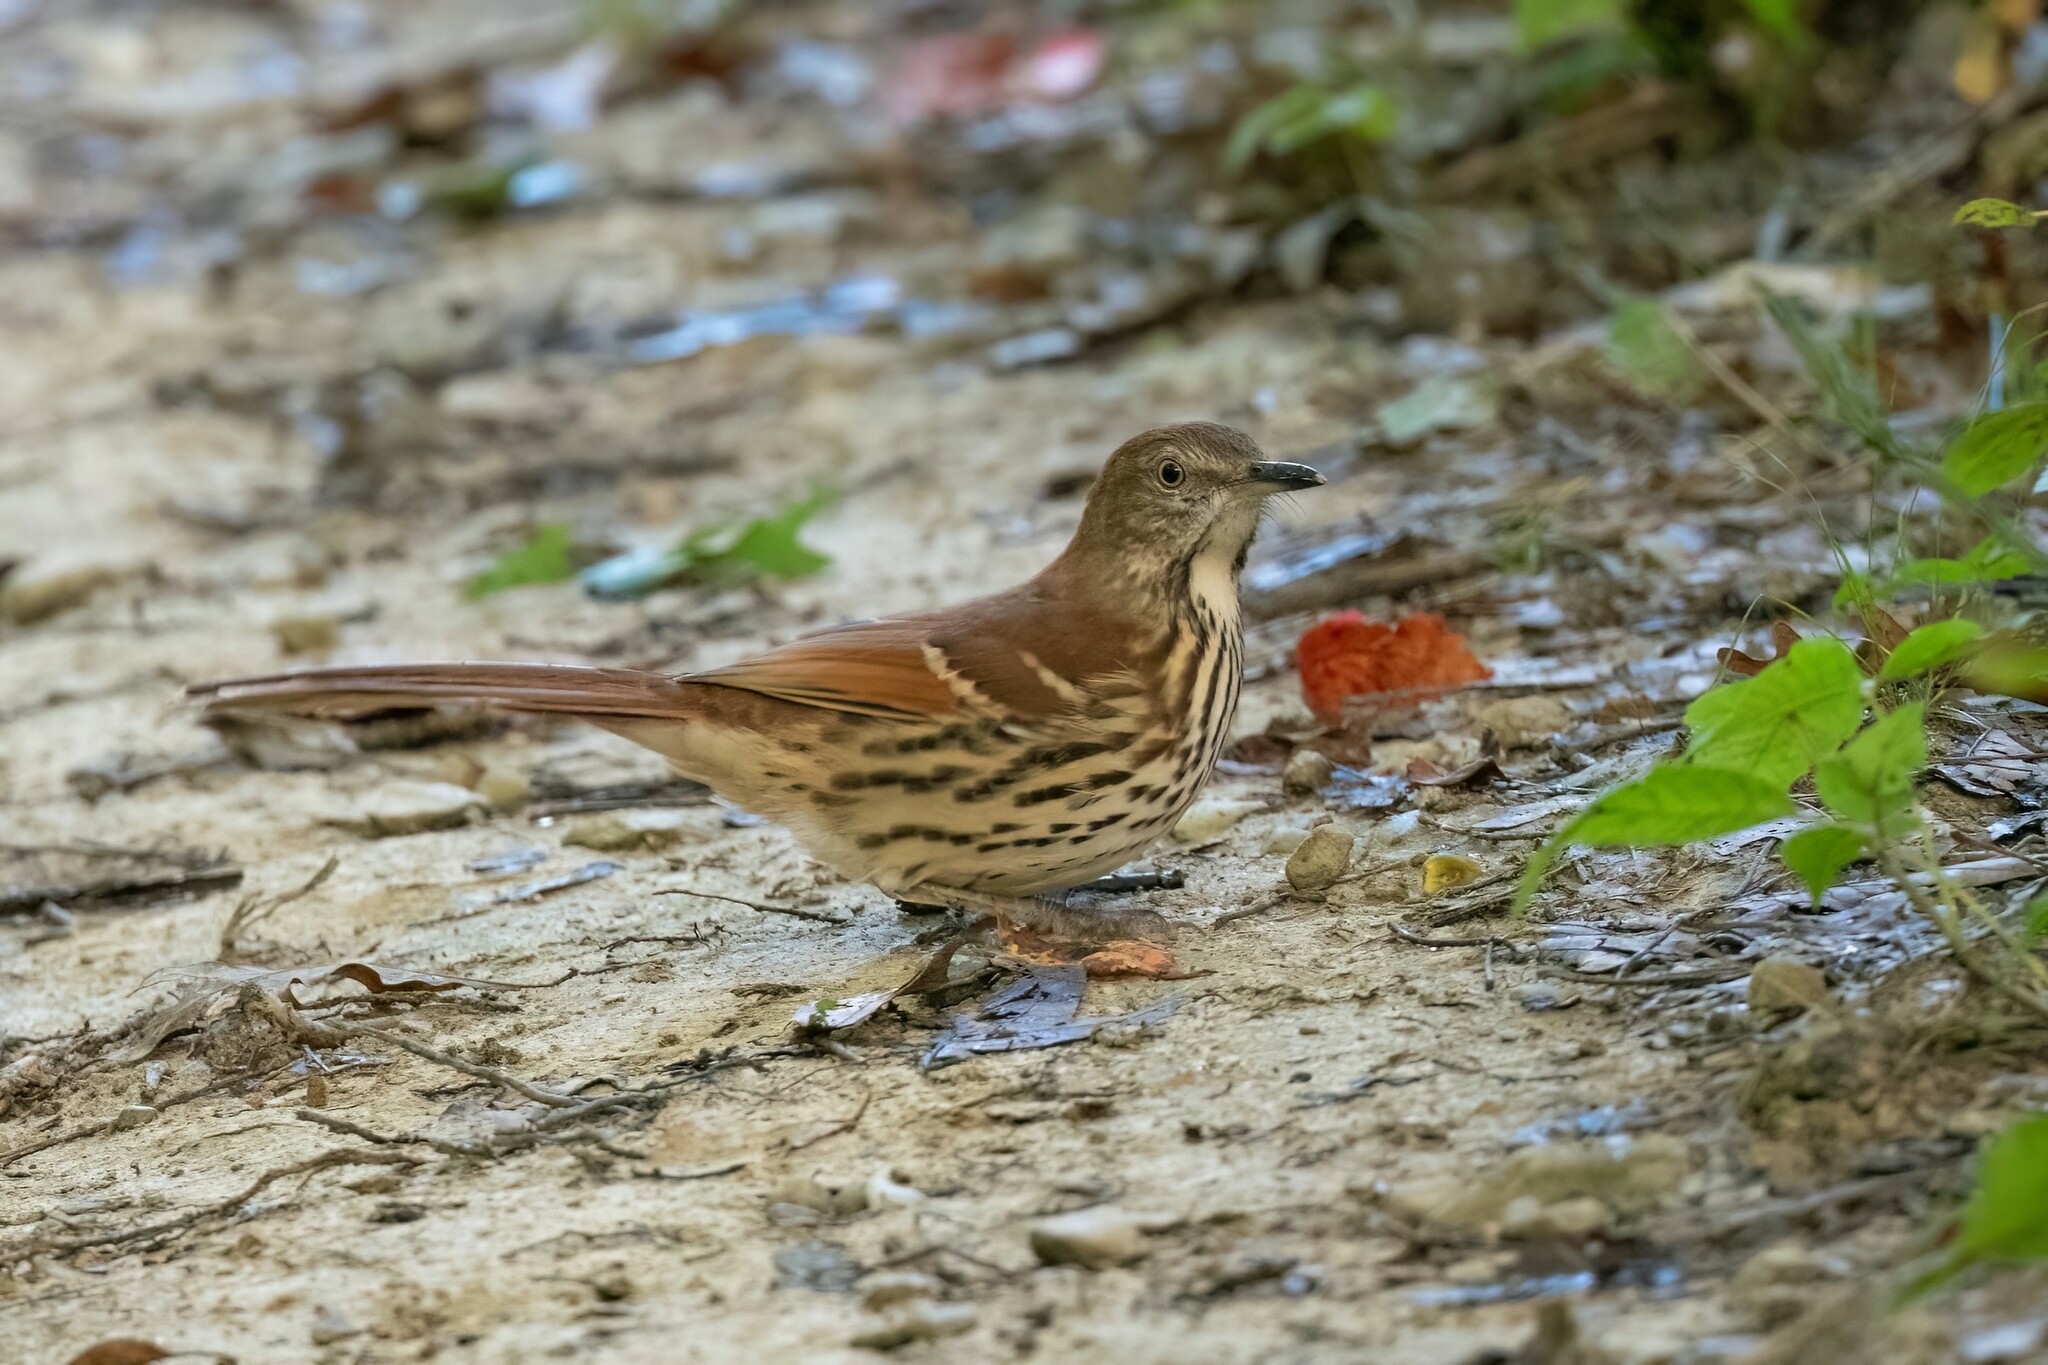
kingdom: Animalia
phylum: Chordata
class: Aves
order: Passeriformes
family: Mimidae
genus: Toxostoma
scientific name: Toxostoma rufum
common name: Brown thrasher
